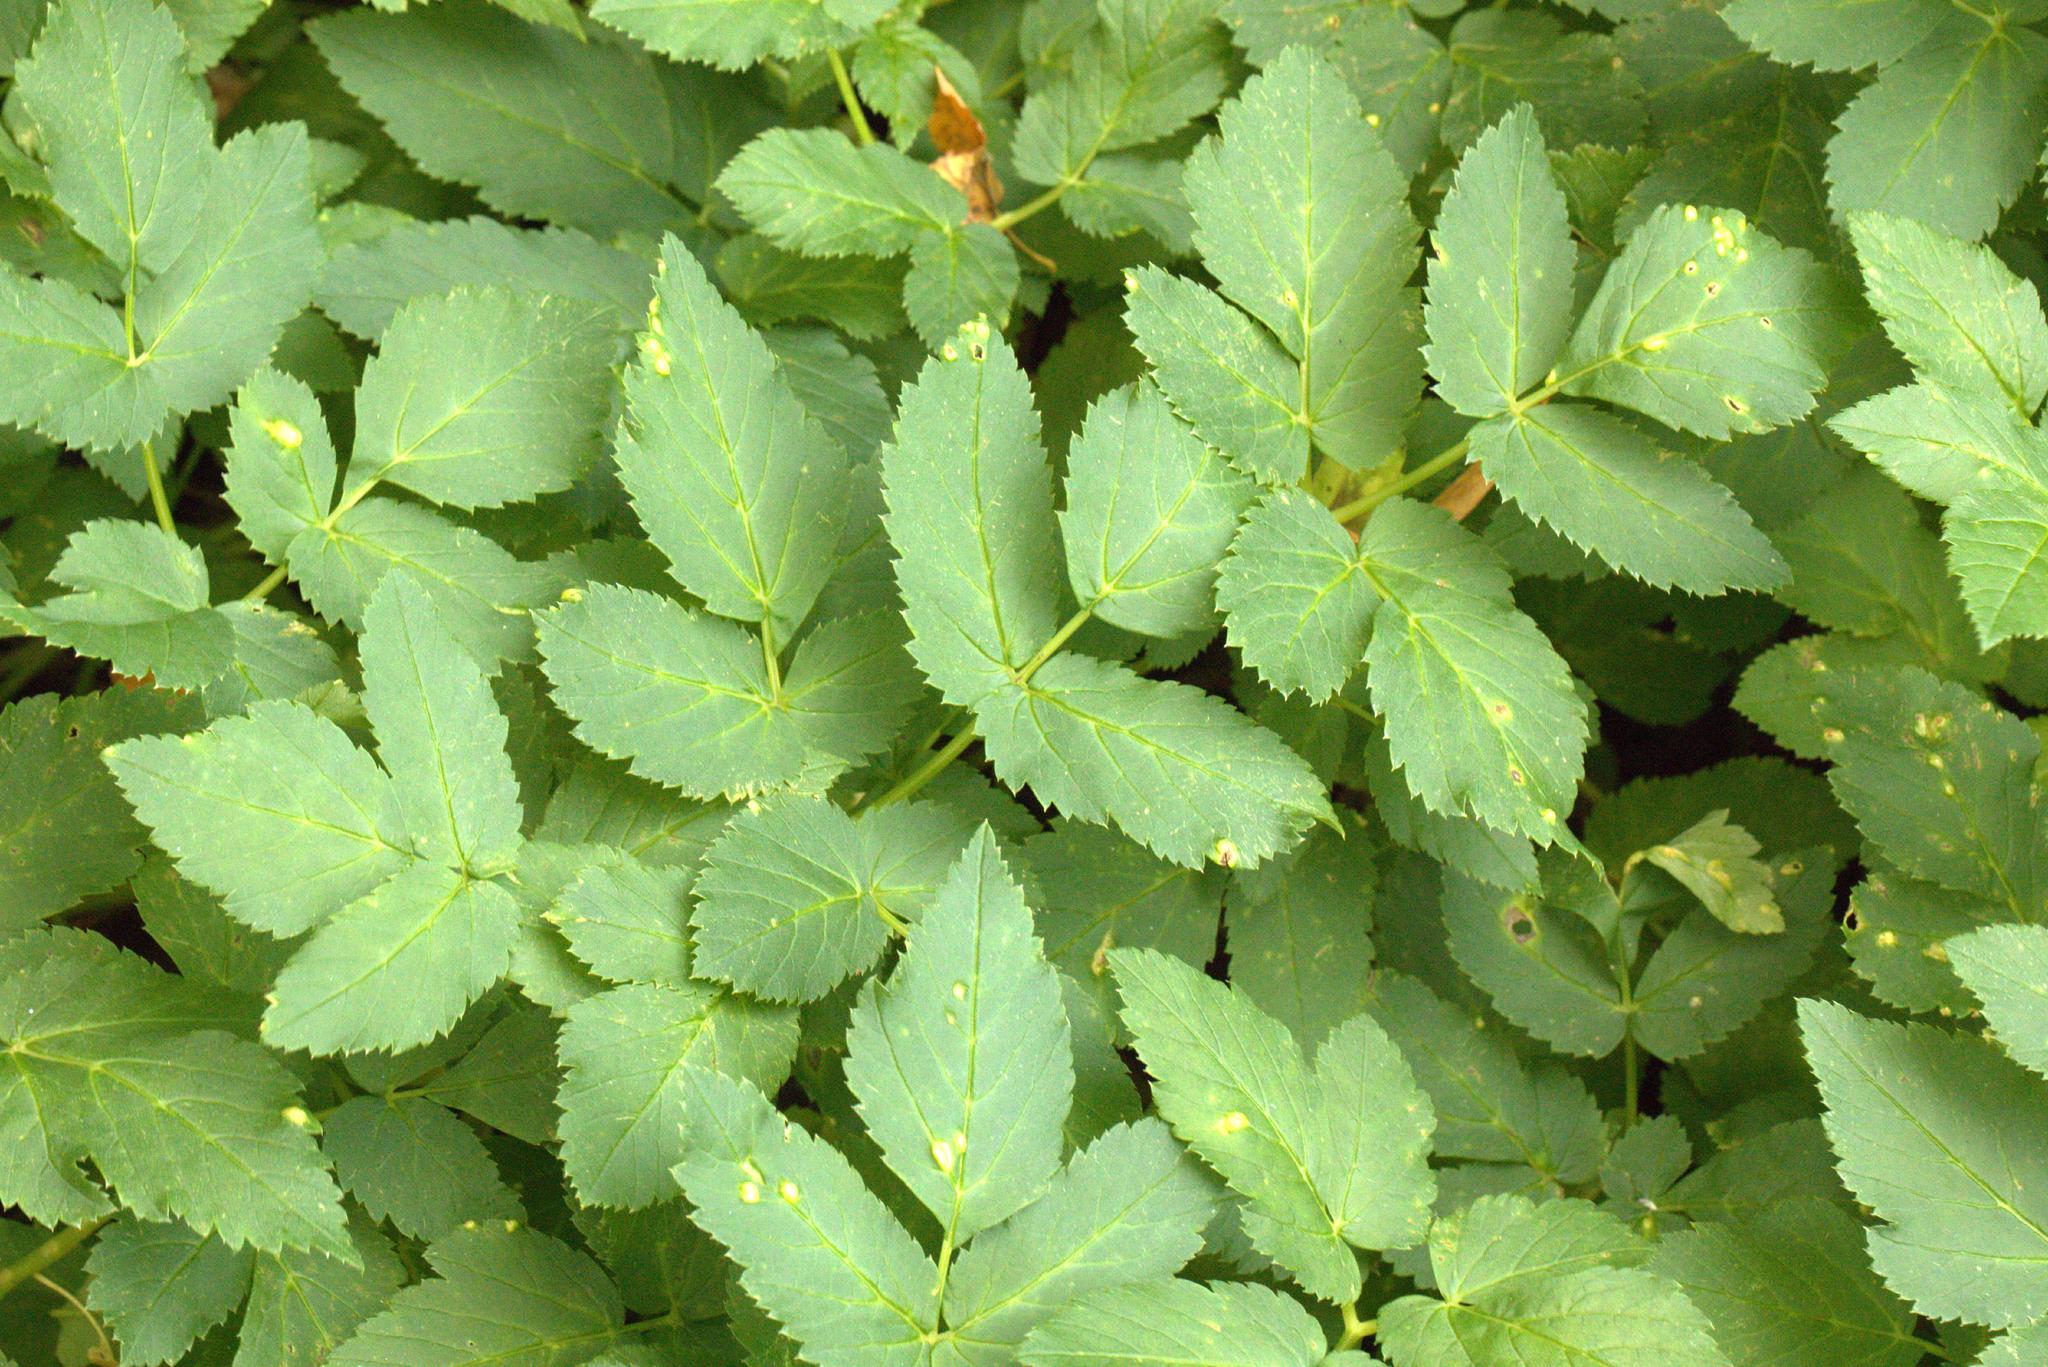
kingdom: Plantae
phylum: Tracheophyta
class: Magnoliopsida
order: Apiales
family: Apiaceae
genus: Smyrnium
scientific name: Smyrnium olusatrum
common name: Alexanders
